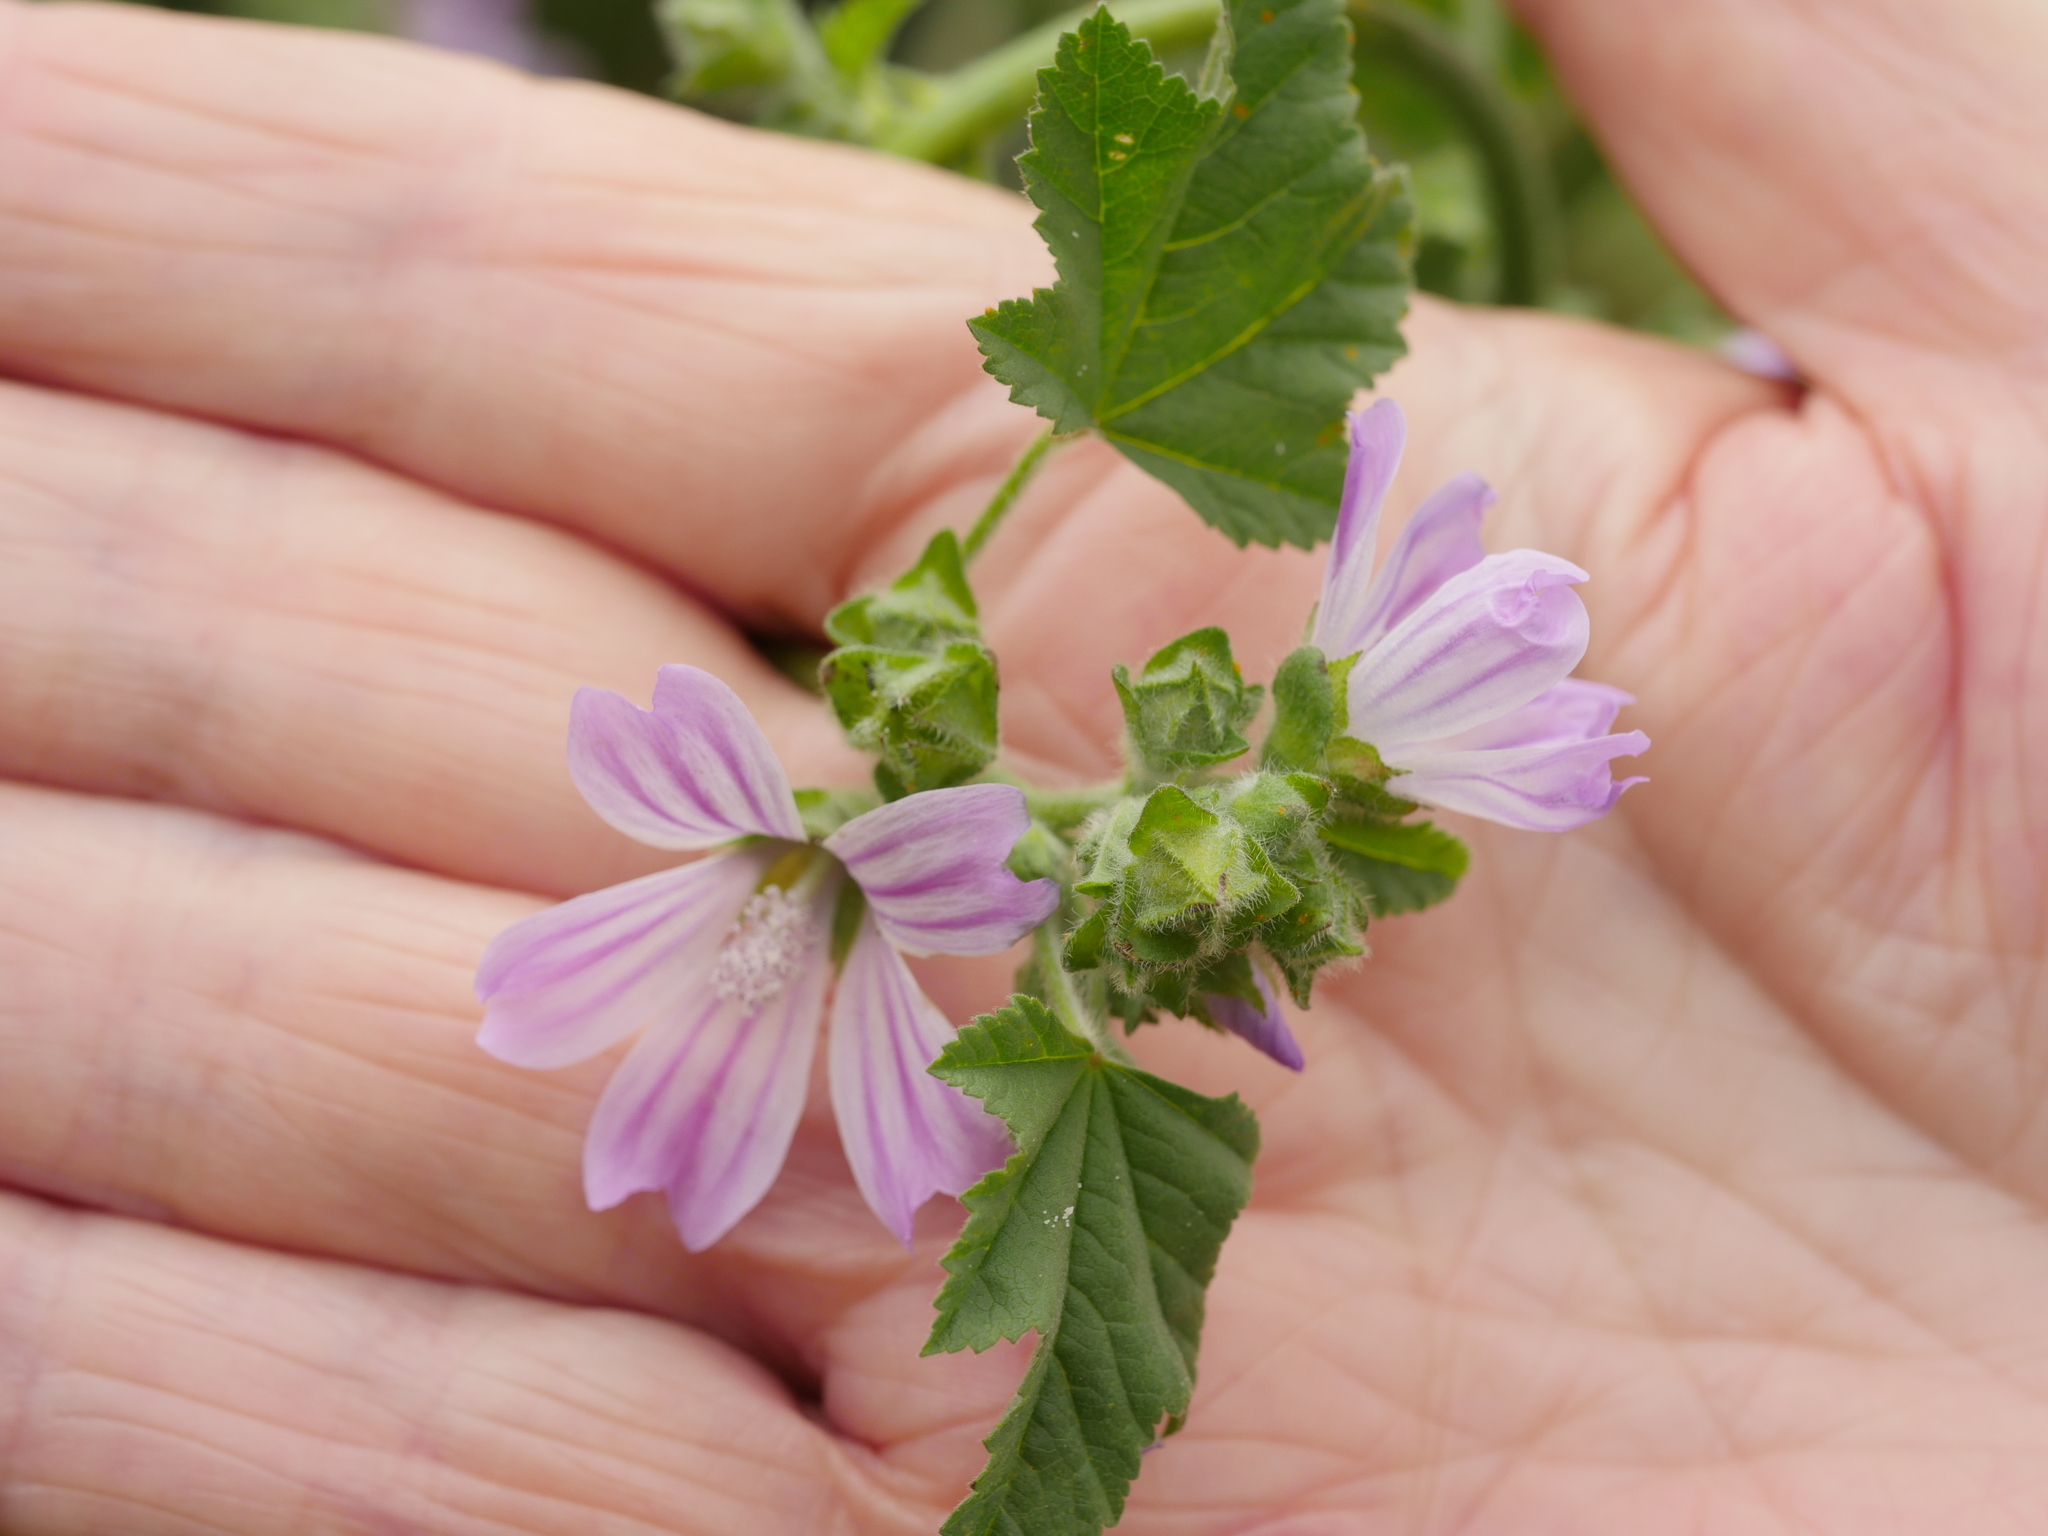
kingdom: Plantae
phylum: Tracheophyta
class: Magnoliopsida
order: Malvales
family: Malvaceae
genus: Malva
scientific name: Malva multiflora
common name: Cheeseweed
